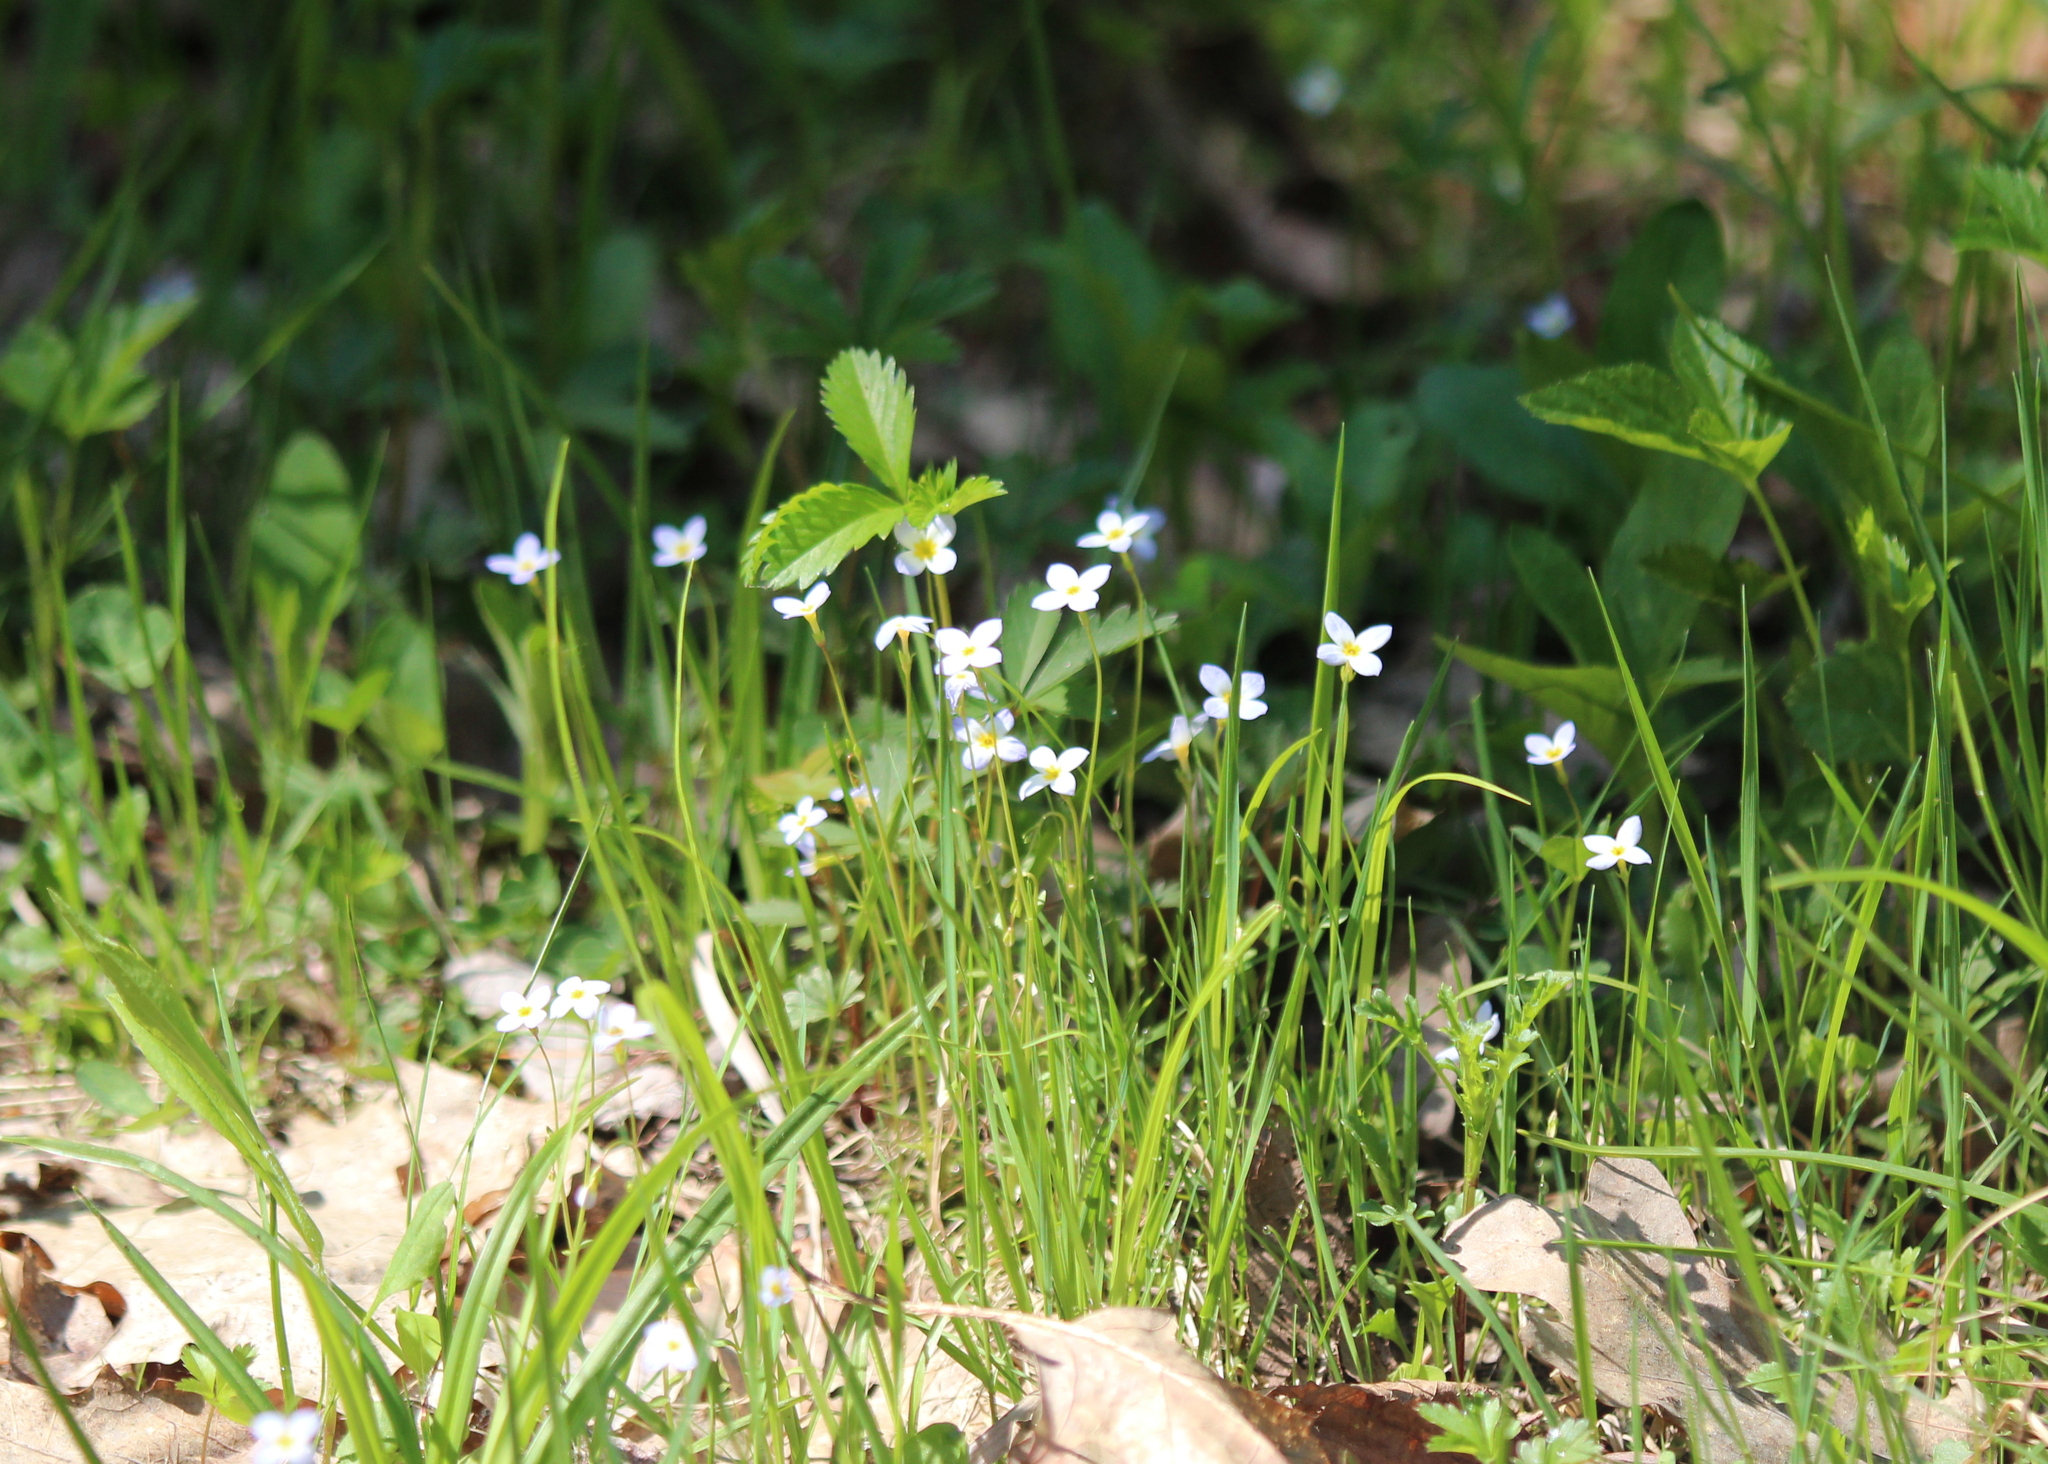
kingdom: Plantae
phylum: Tracheophyta
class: Magnoliopsida
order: Gentianales
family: Rubiaceae
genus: Houstonia
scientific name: Houstonia caerulea
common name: Bluets
